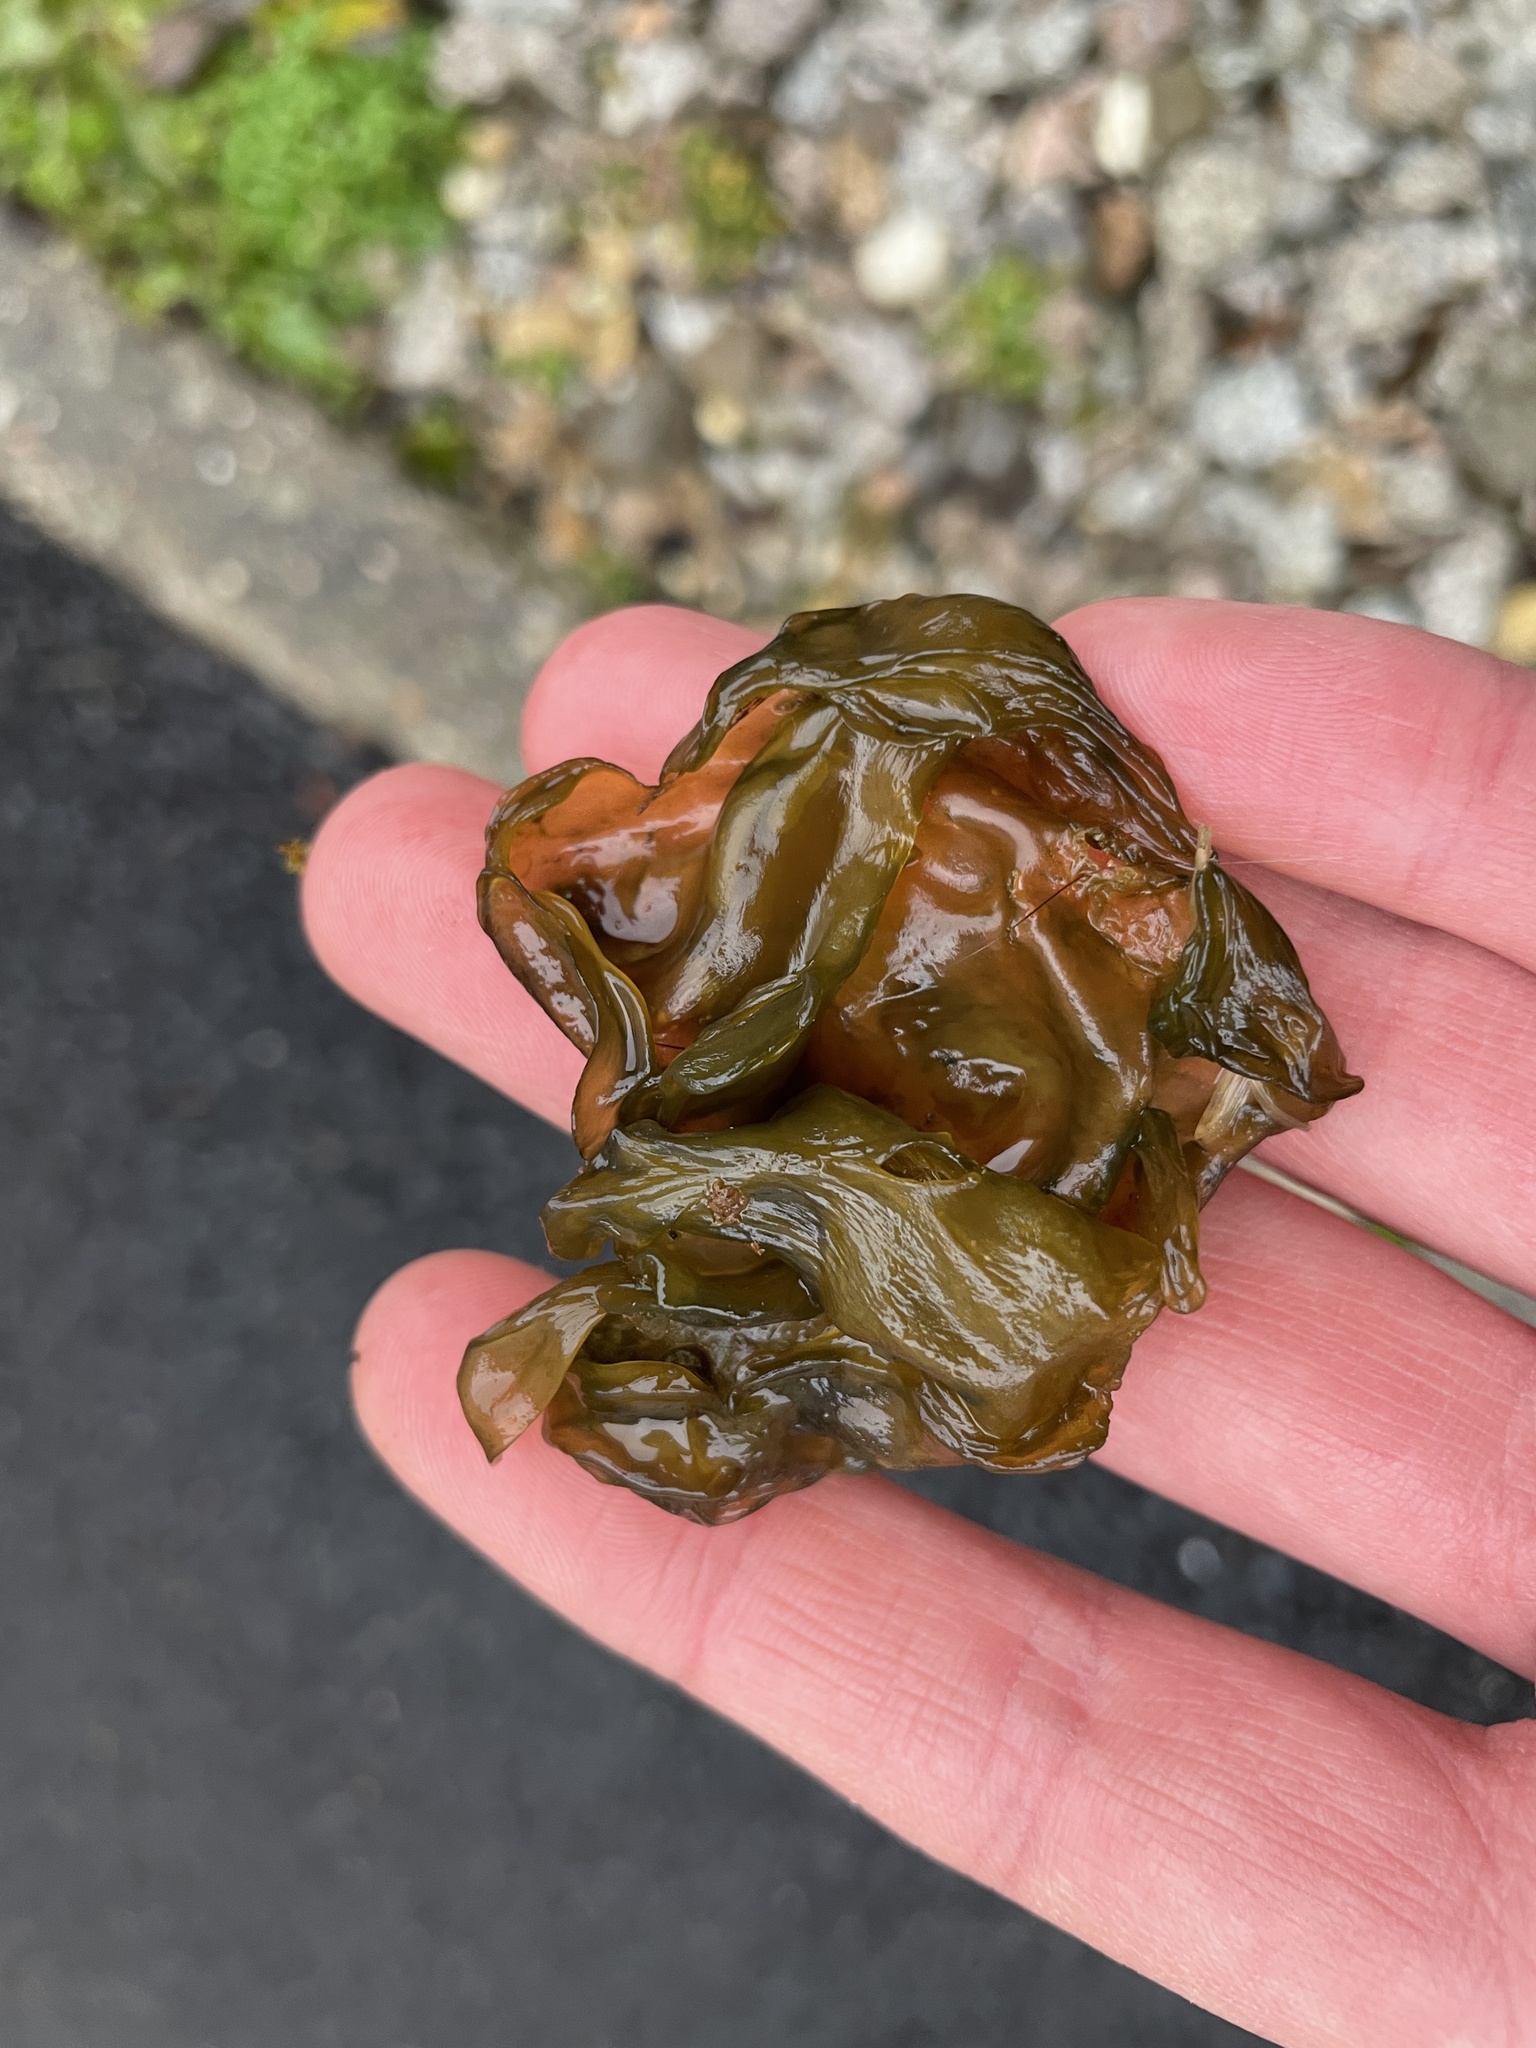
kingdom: Bacteria
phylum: Cyanobacteria
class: Cyanobacteriia
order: Cyanobacteriales
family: Nostocaceae
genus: Nostoc
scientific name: Nostoc commune
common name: Star jelly
